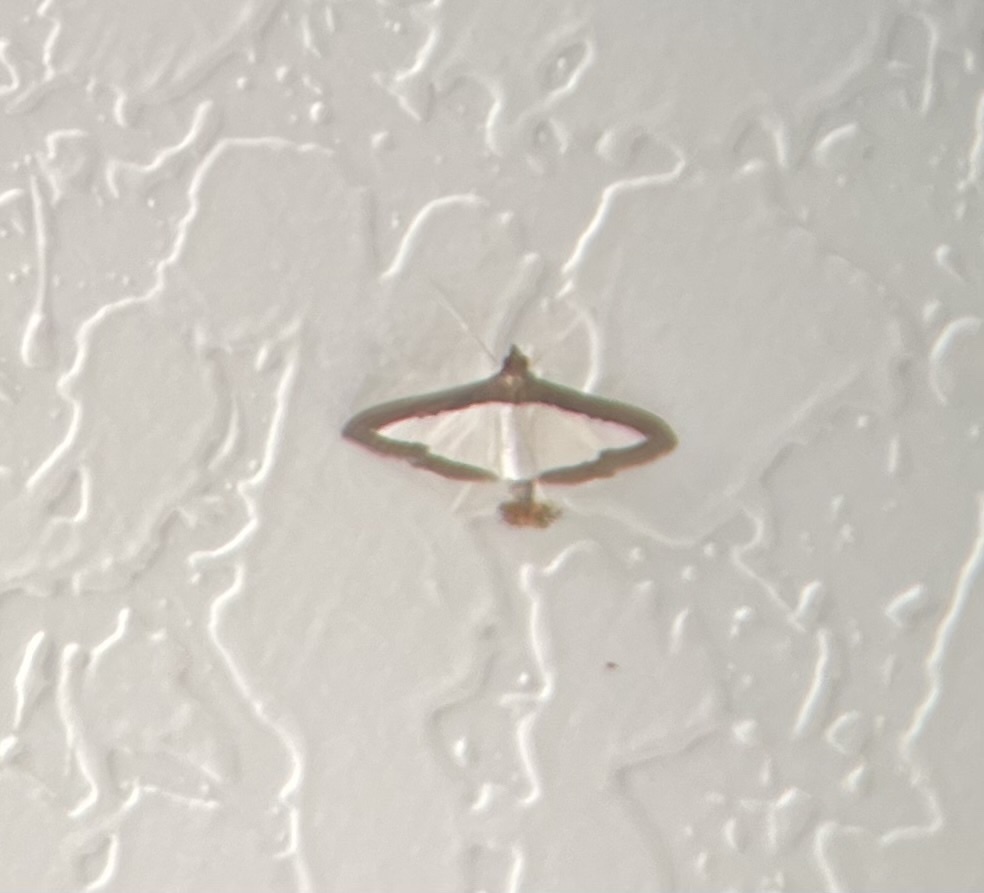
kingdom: Animalia
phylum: Arthropoda
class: Insecta
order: Lepidoptera
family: Crambidae
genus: Diaphania
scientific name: Diaphania hyalinata
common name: Melonworm
